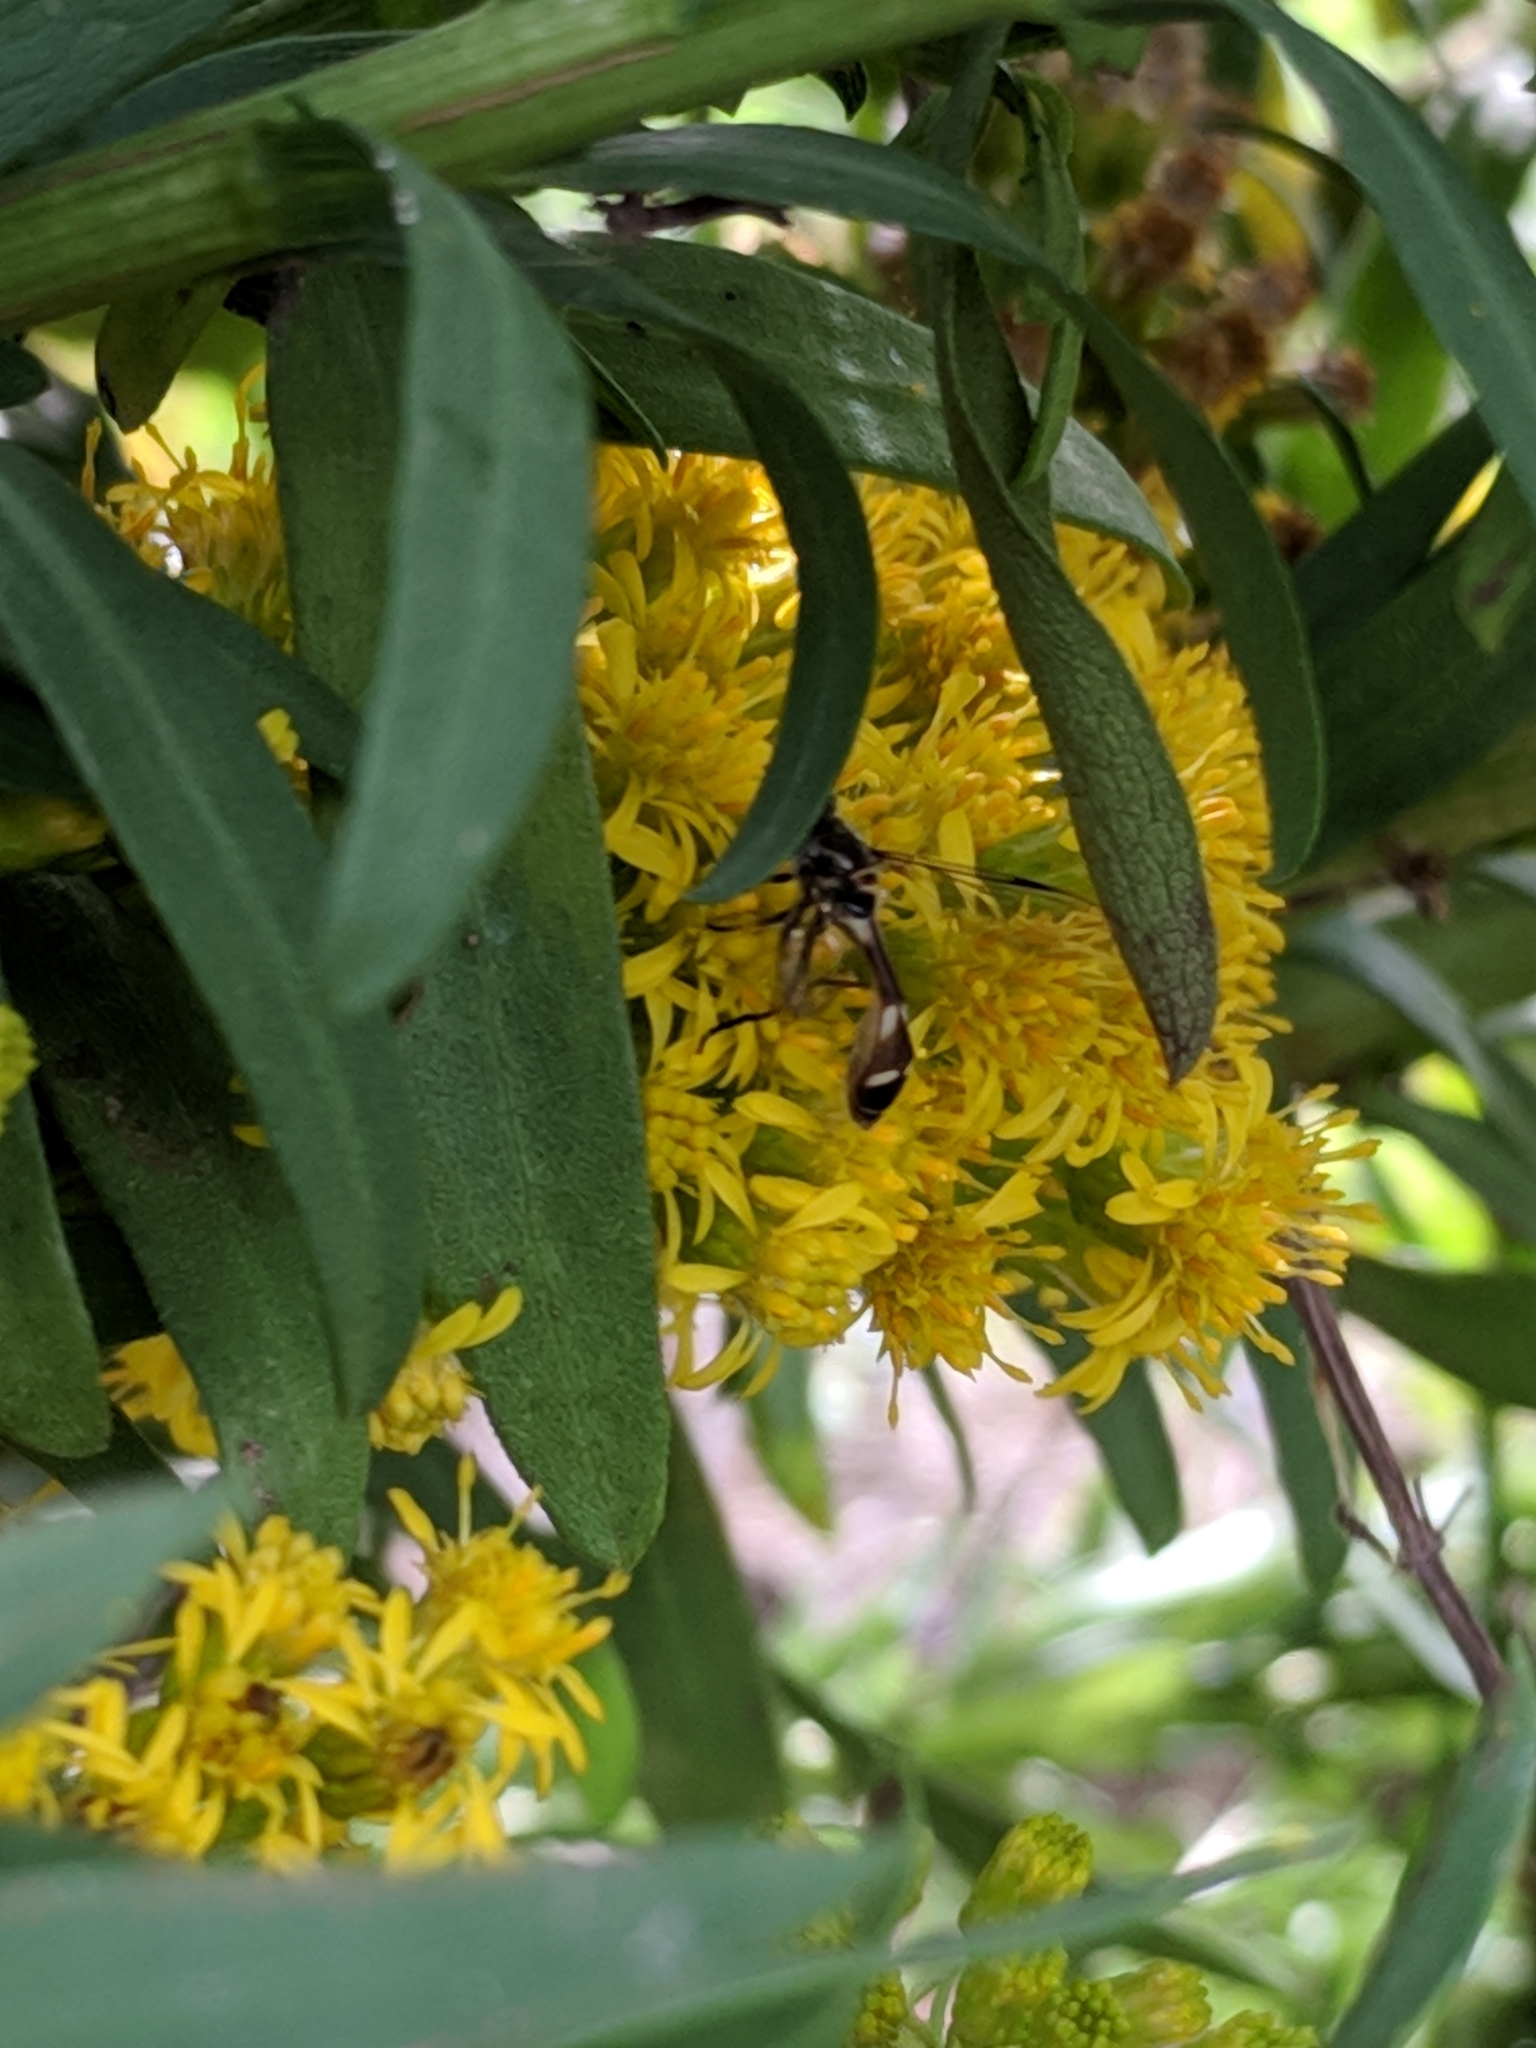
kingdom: Animalia
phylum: Arthropoda
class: Insecta
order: Diptera
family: Syrphidae
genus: Dioprosopa
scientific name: Dioprosopa clavatus
